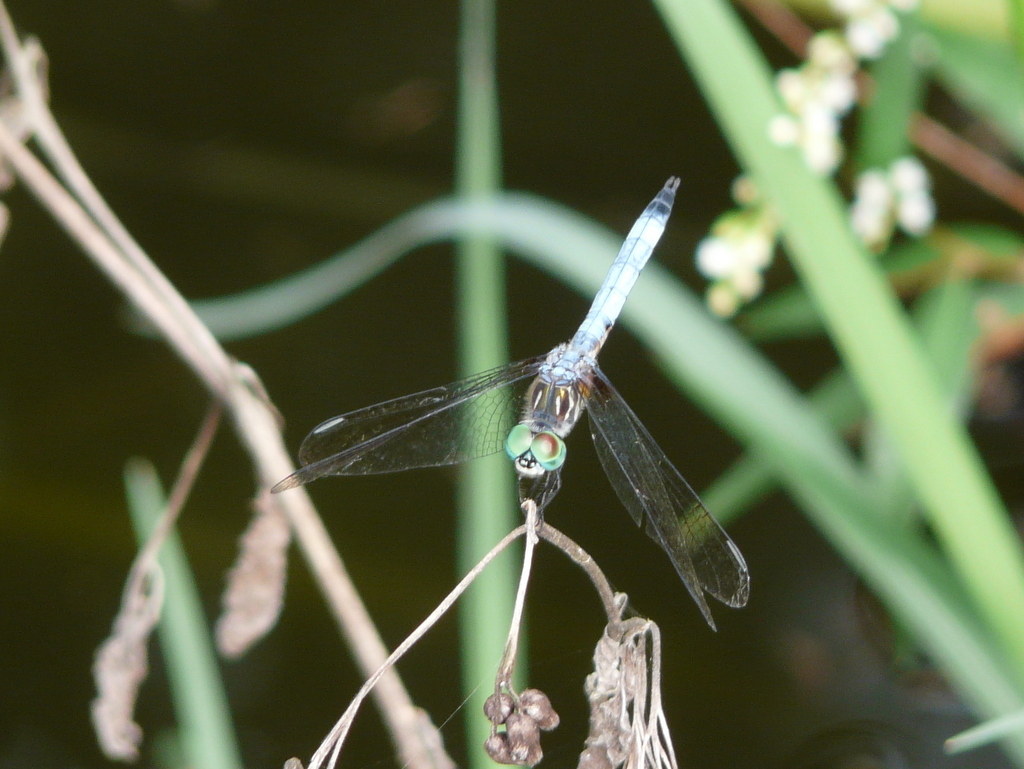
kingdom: Animalia
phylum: Arthropoda
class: Insecta
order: Odonata
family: Libellulidae
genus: Pachydiplax
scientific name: Pachydiplax longipennis
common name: Blue dasher
